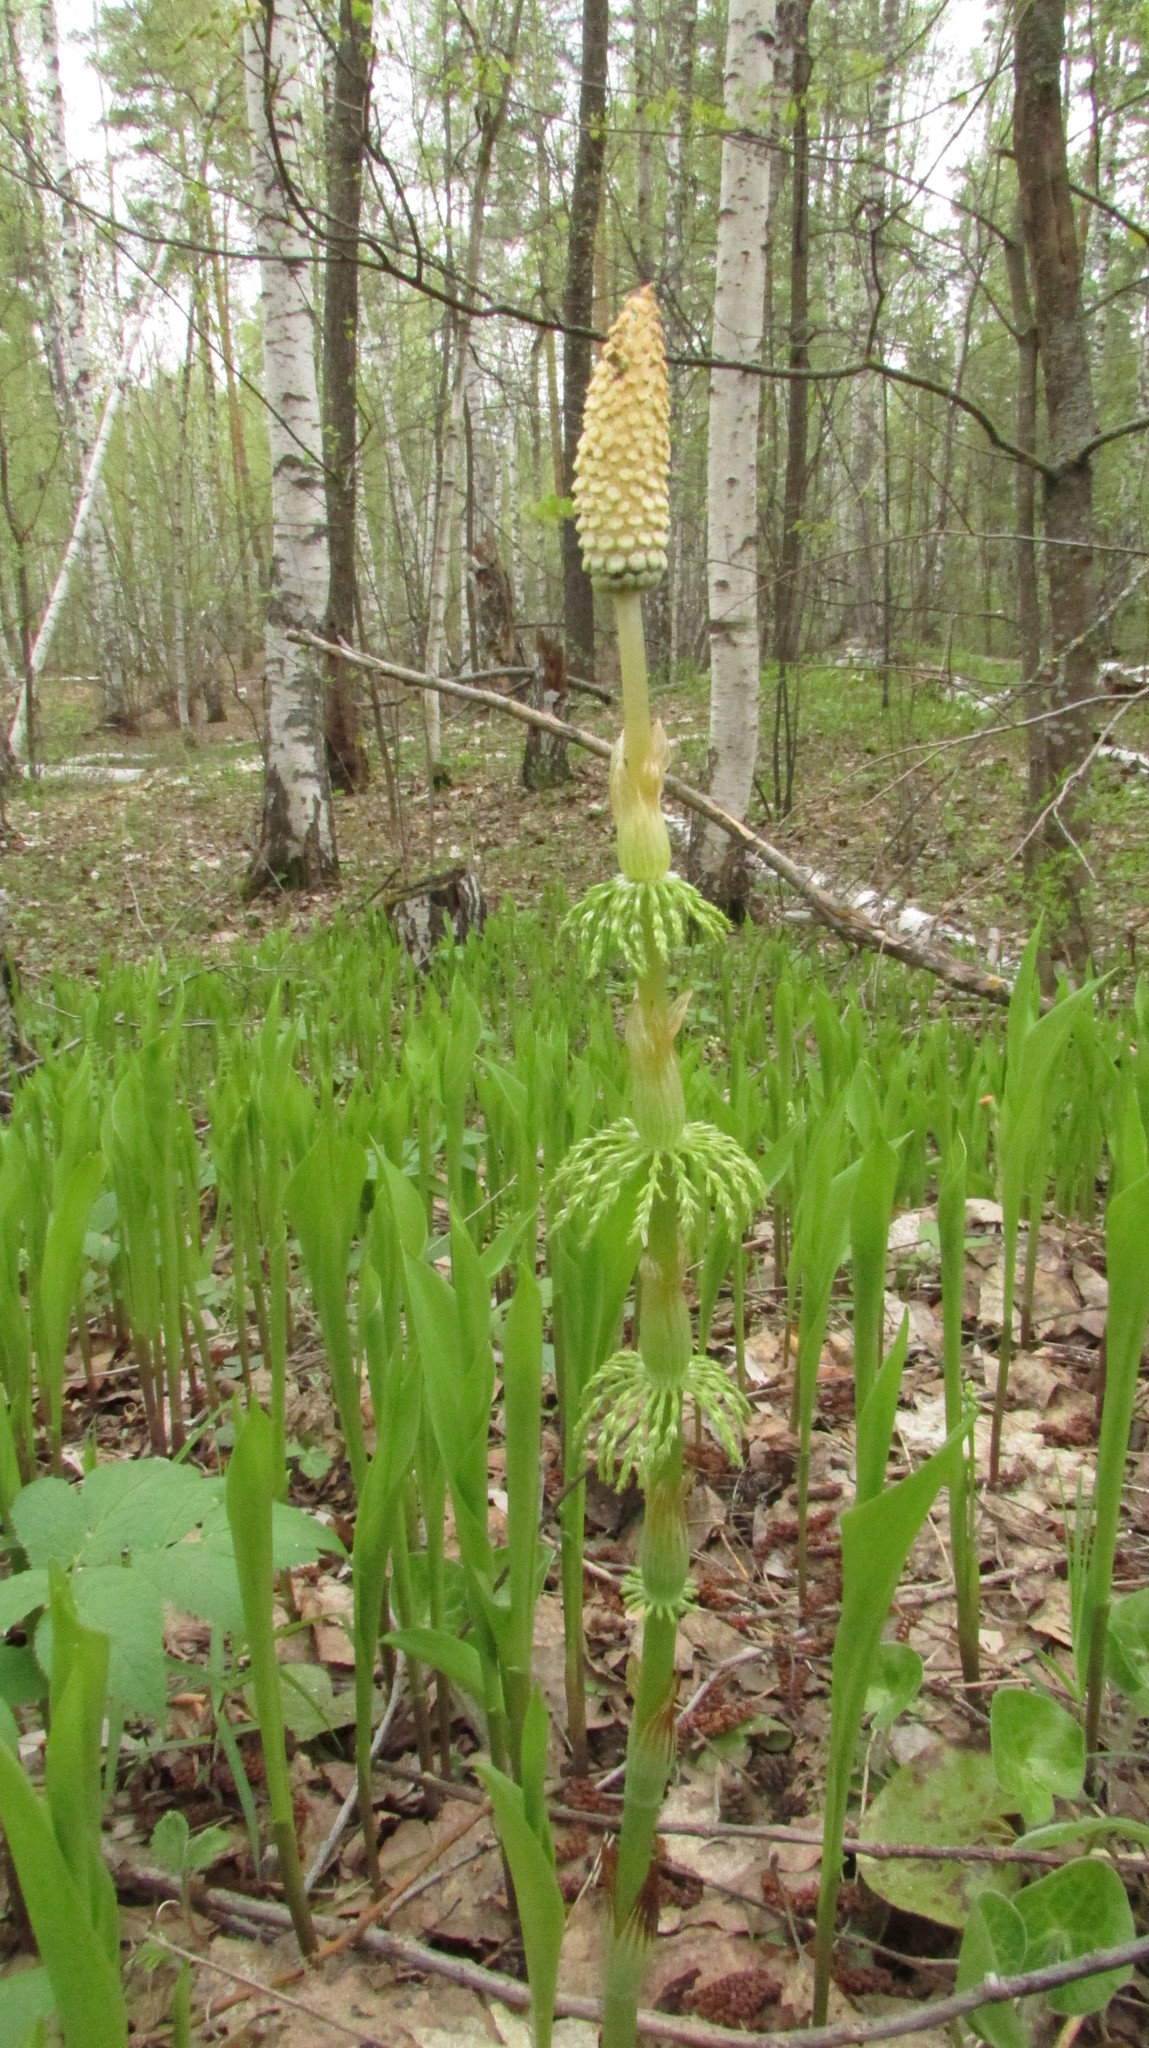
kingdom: Plantae
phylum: Tracheophyta
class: Polypodiopsida
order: Equisetales
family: Equisetaceae
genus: Equisetum
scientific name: Equisetum sylvaticum
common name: Wood horsetail
